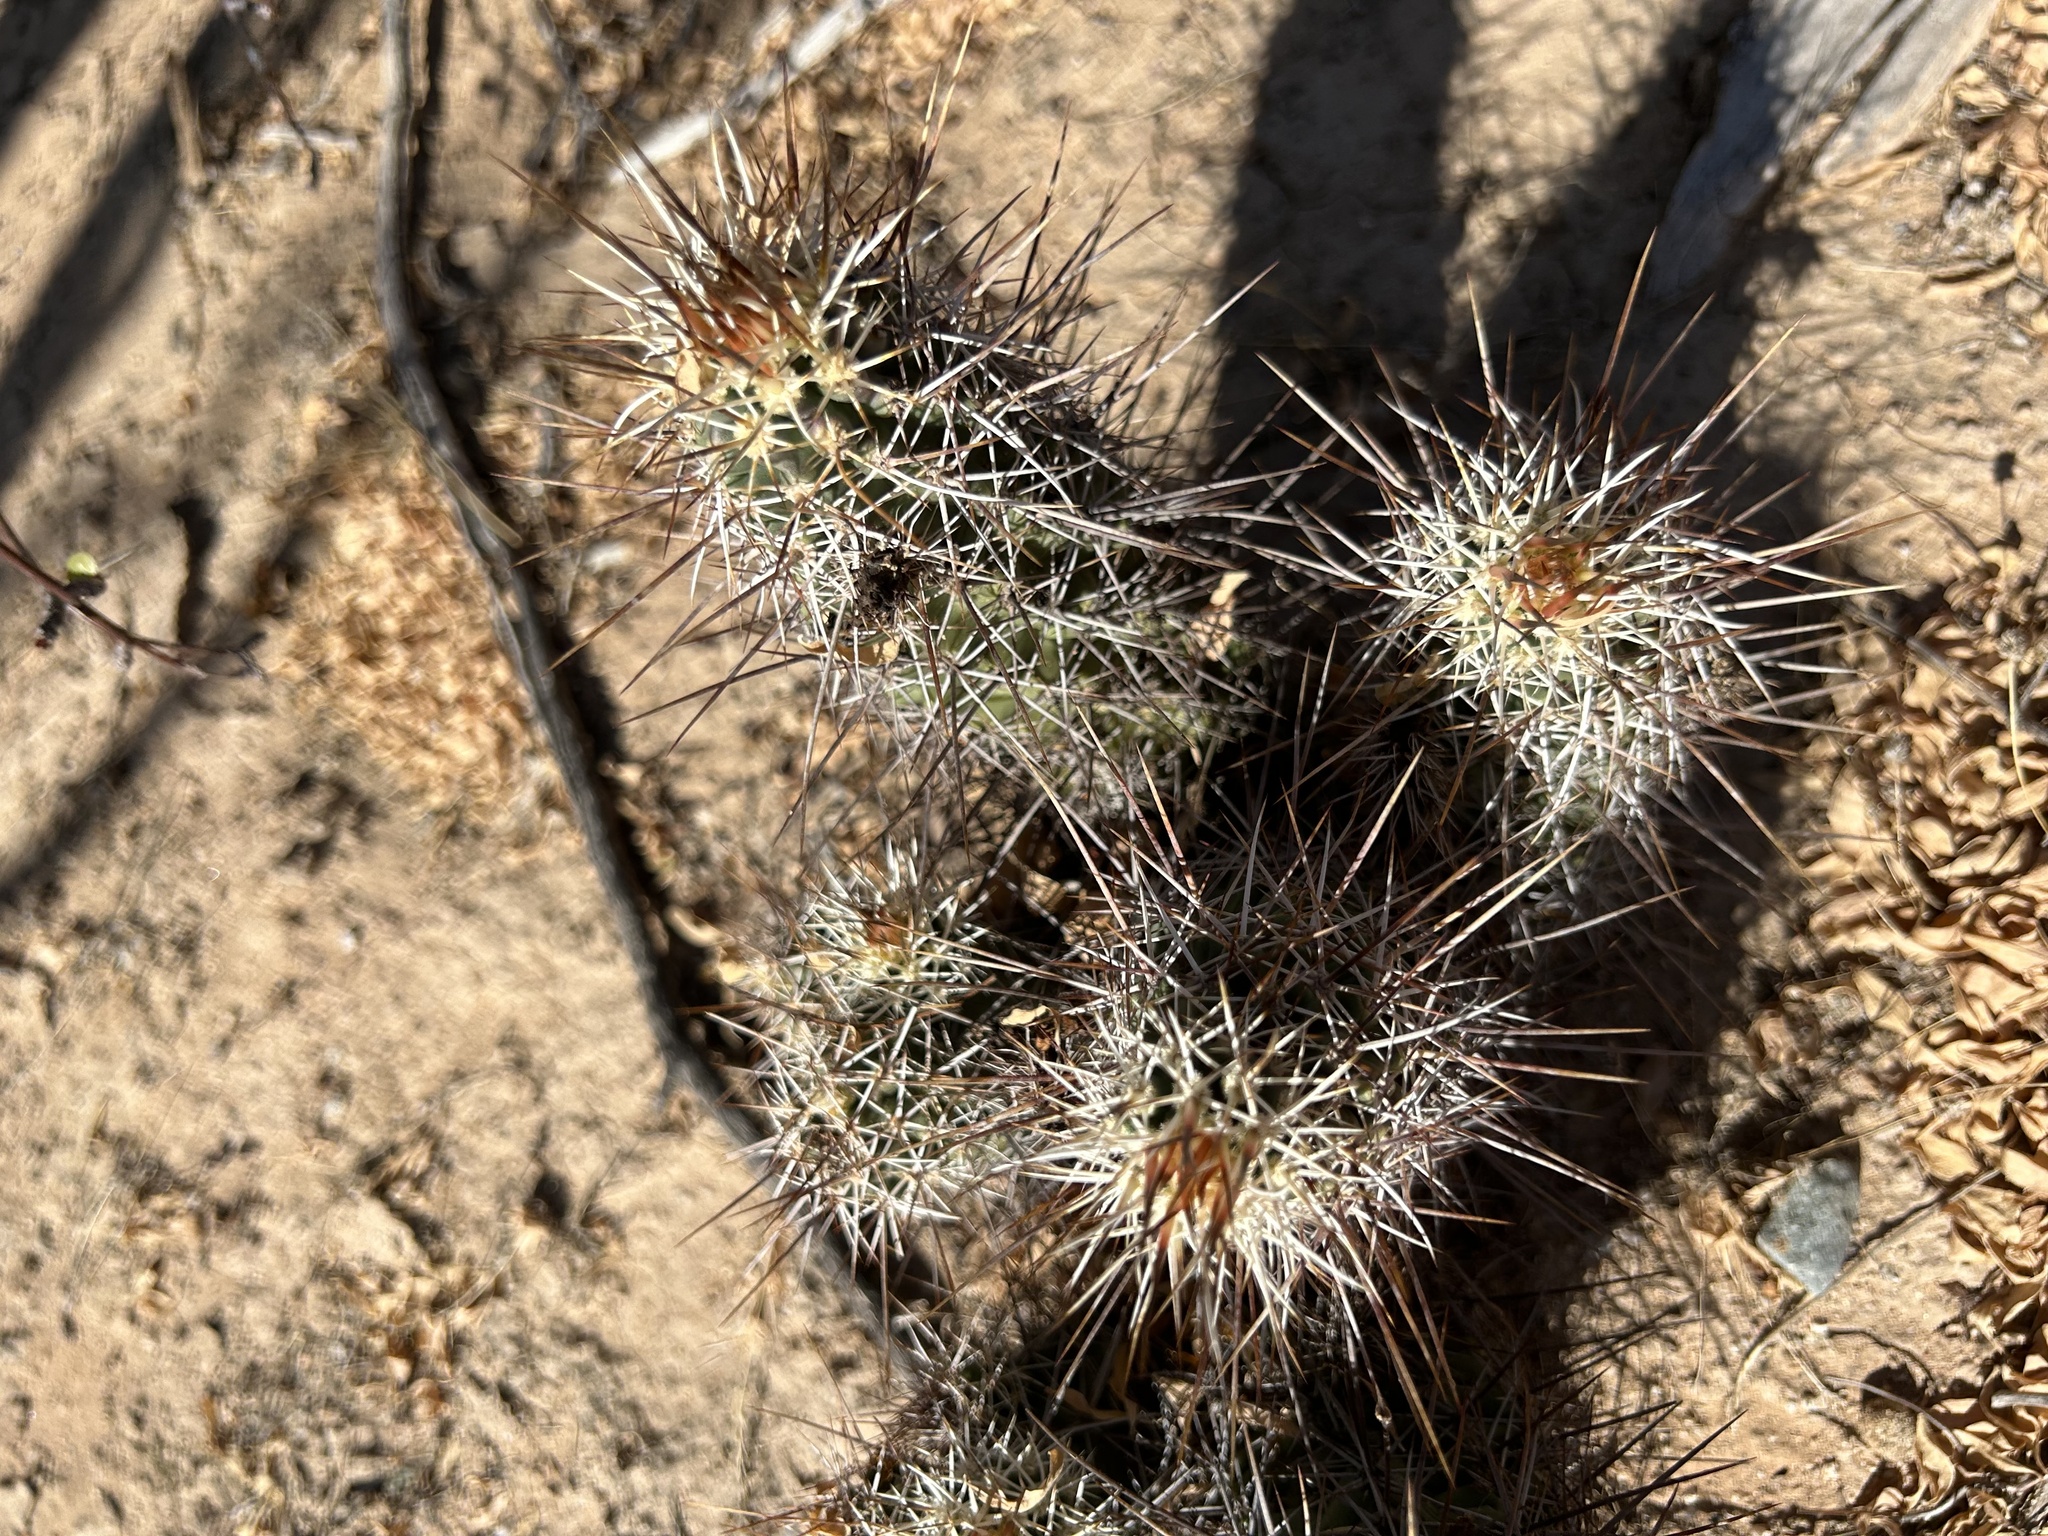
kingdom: Plantae
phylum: Tracheophyta
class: Magnoliopsida
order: Caryophyllales
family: Cactaceae
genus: Echinocereus
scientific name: Echinocereus fasciculatus
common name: Bundle hedgehog
